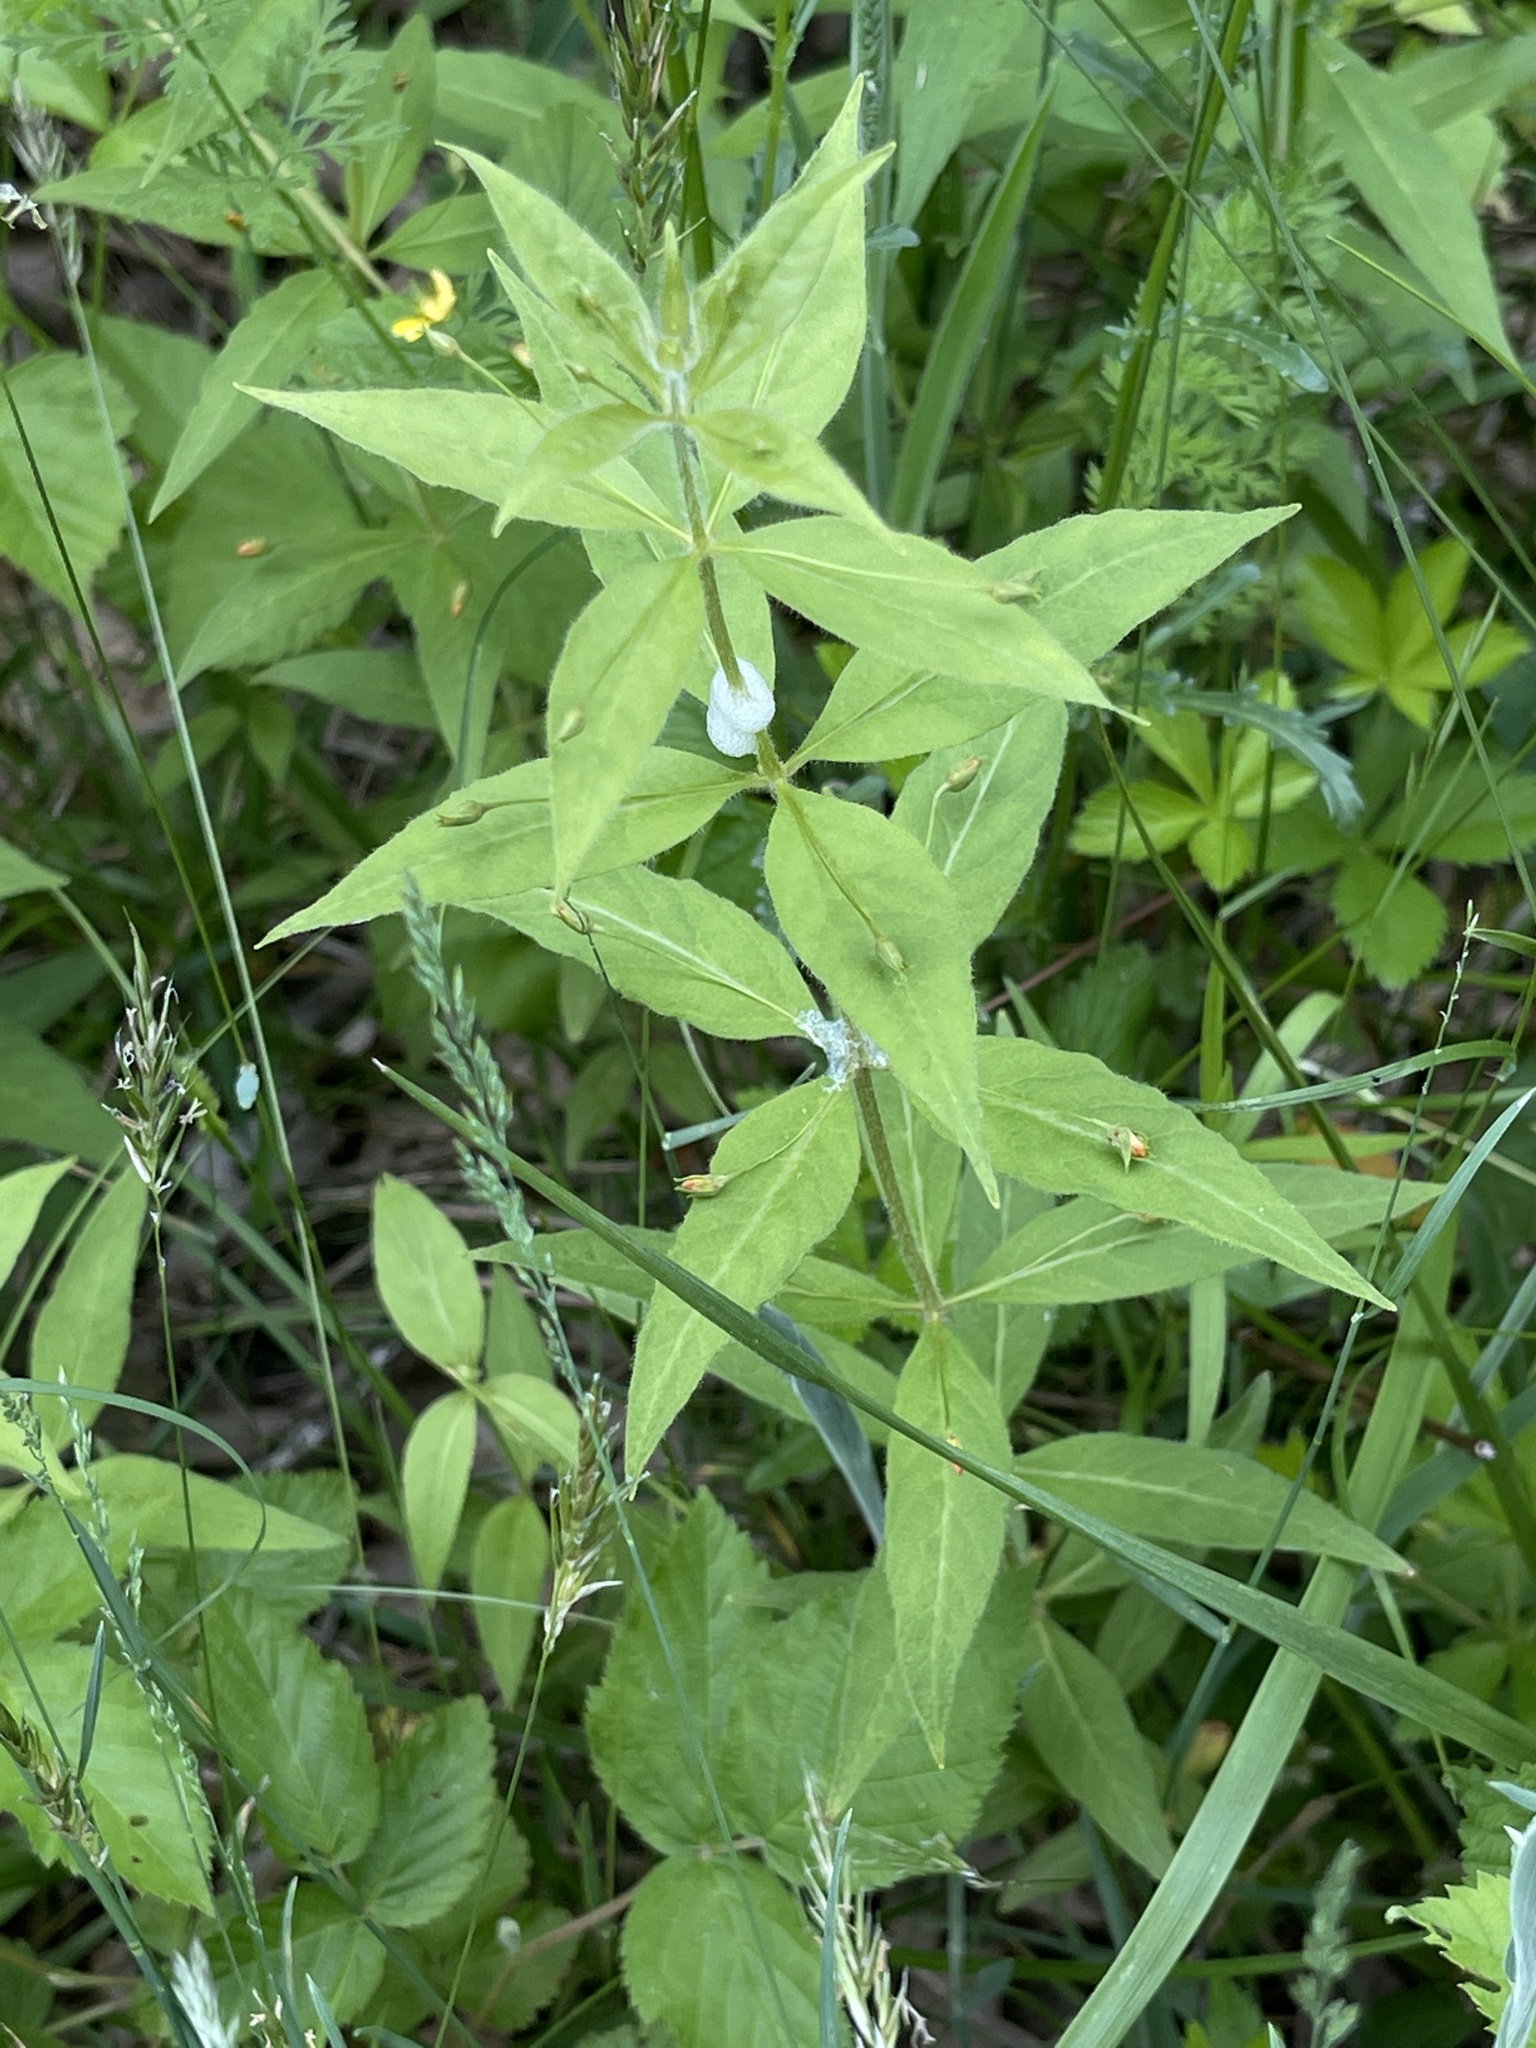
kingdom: Plantae
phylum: Tracheophyta
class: Magnoliopsida
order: Ericales
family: Primulaceae
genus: Lysimachia
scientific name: Lysimachia quadrifolia
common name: Whorled loosestrife
